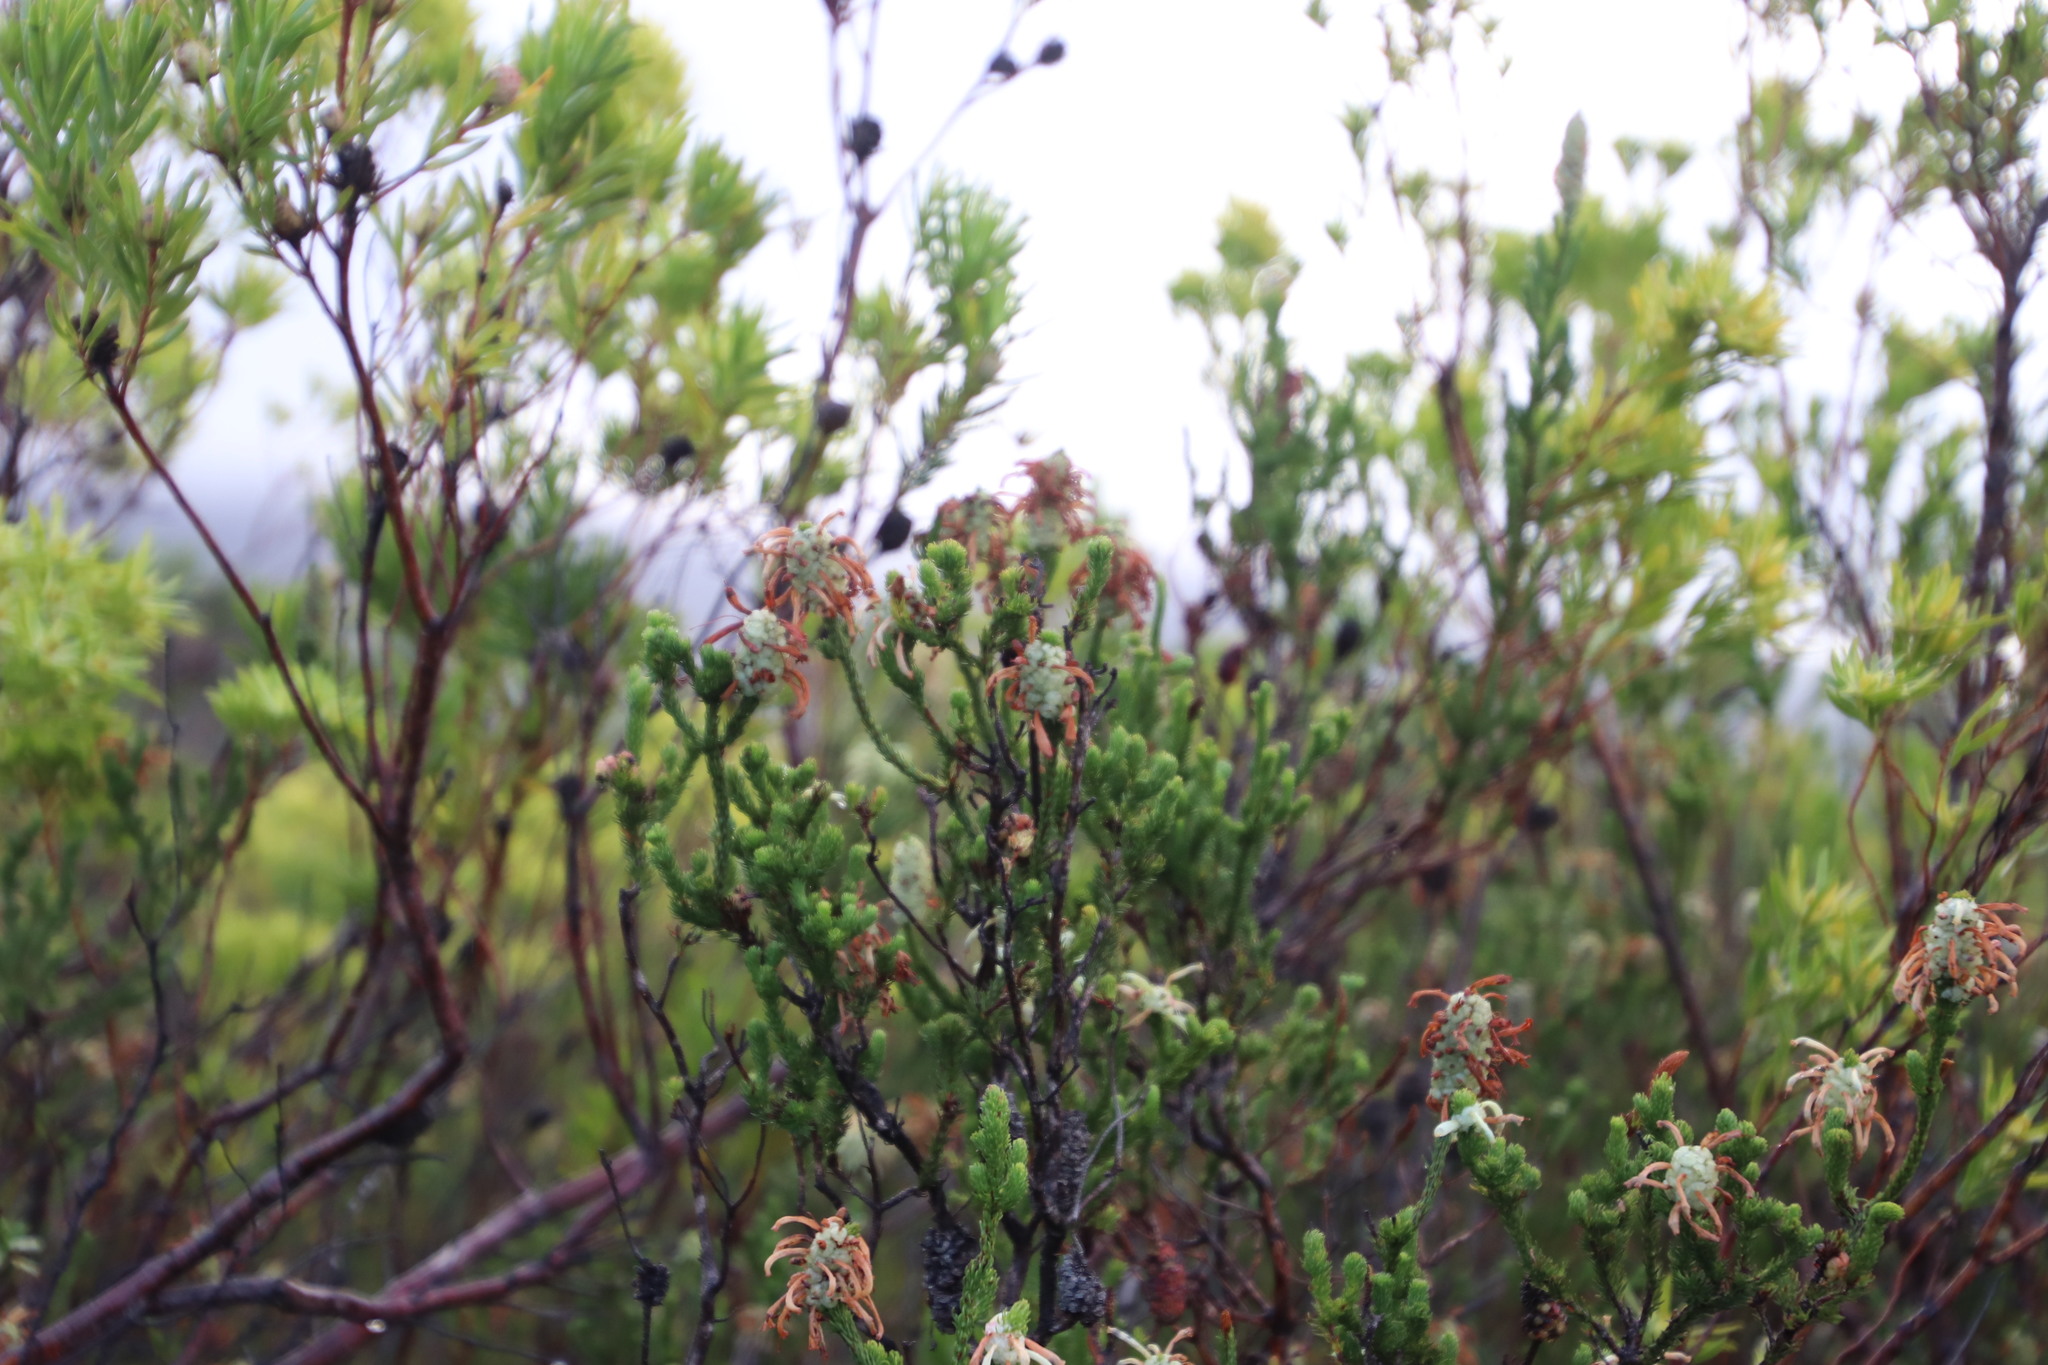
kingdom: Plantae
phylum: Tracheophyta
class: Magnoliopsida
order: Ericales
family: Ericaceae
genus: Erica
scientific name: Erica sessiliflora
